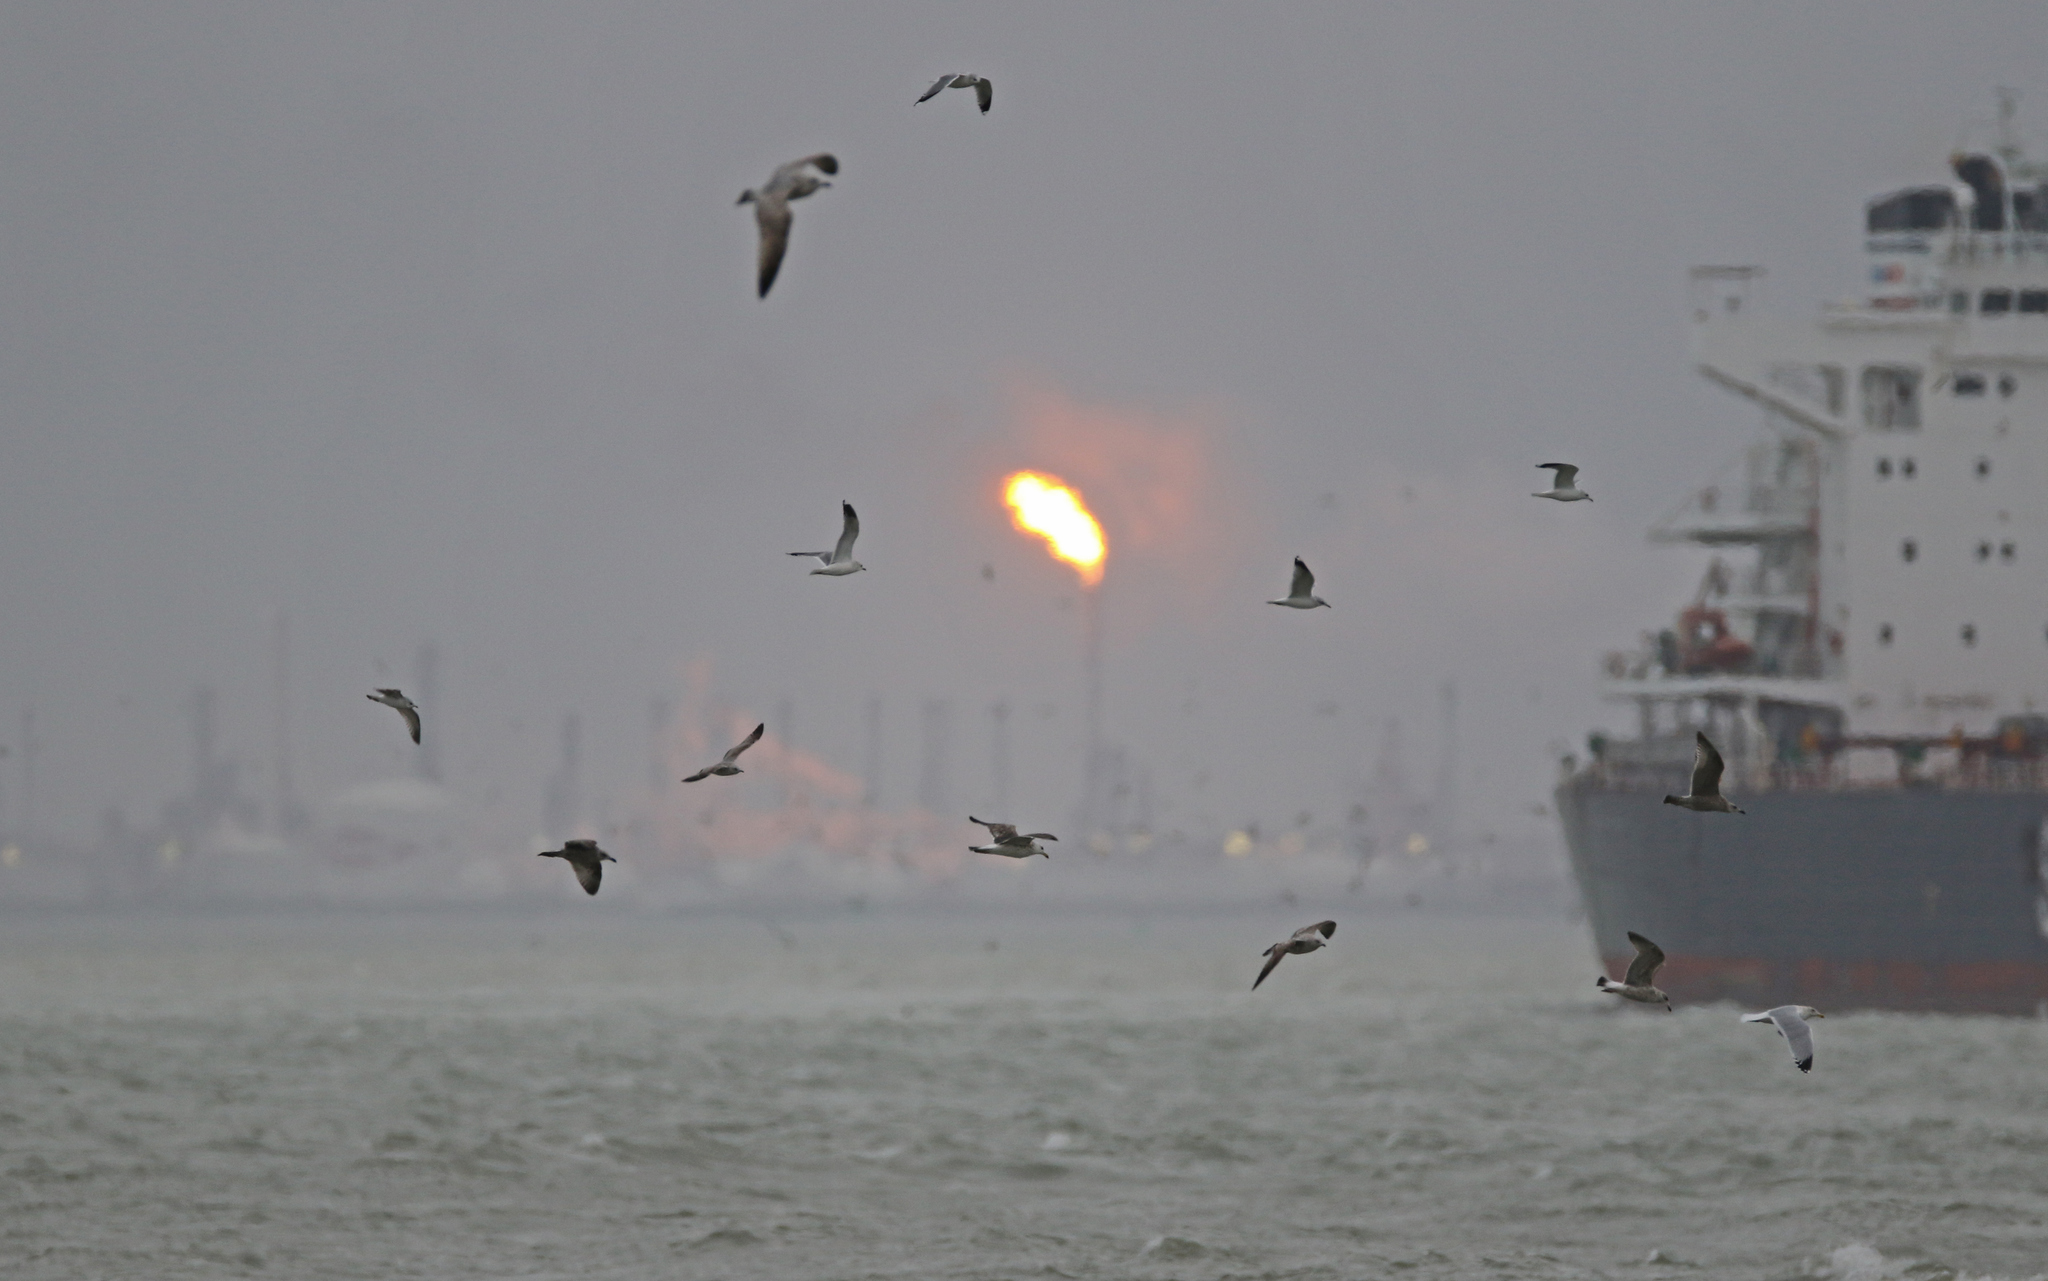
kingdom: Animalia
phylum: Chordata
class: Aves
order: Charadriiformes
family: Laridae
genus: Larus
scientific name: Larus canus
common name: Mew gull
